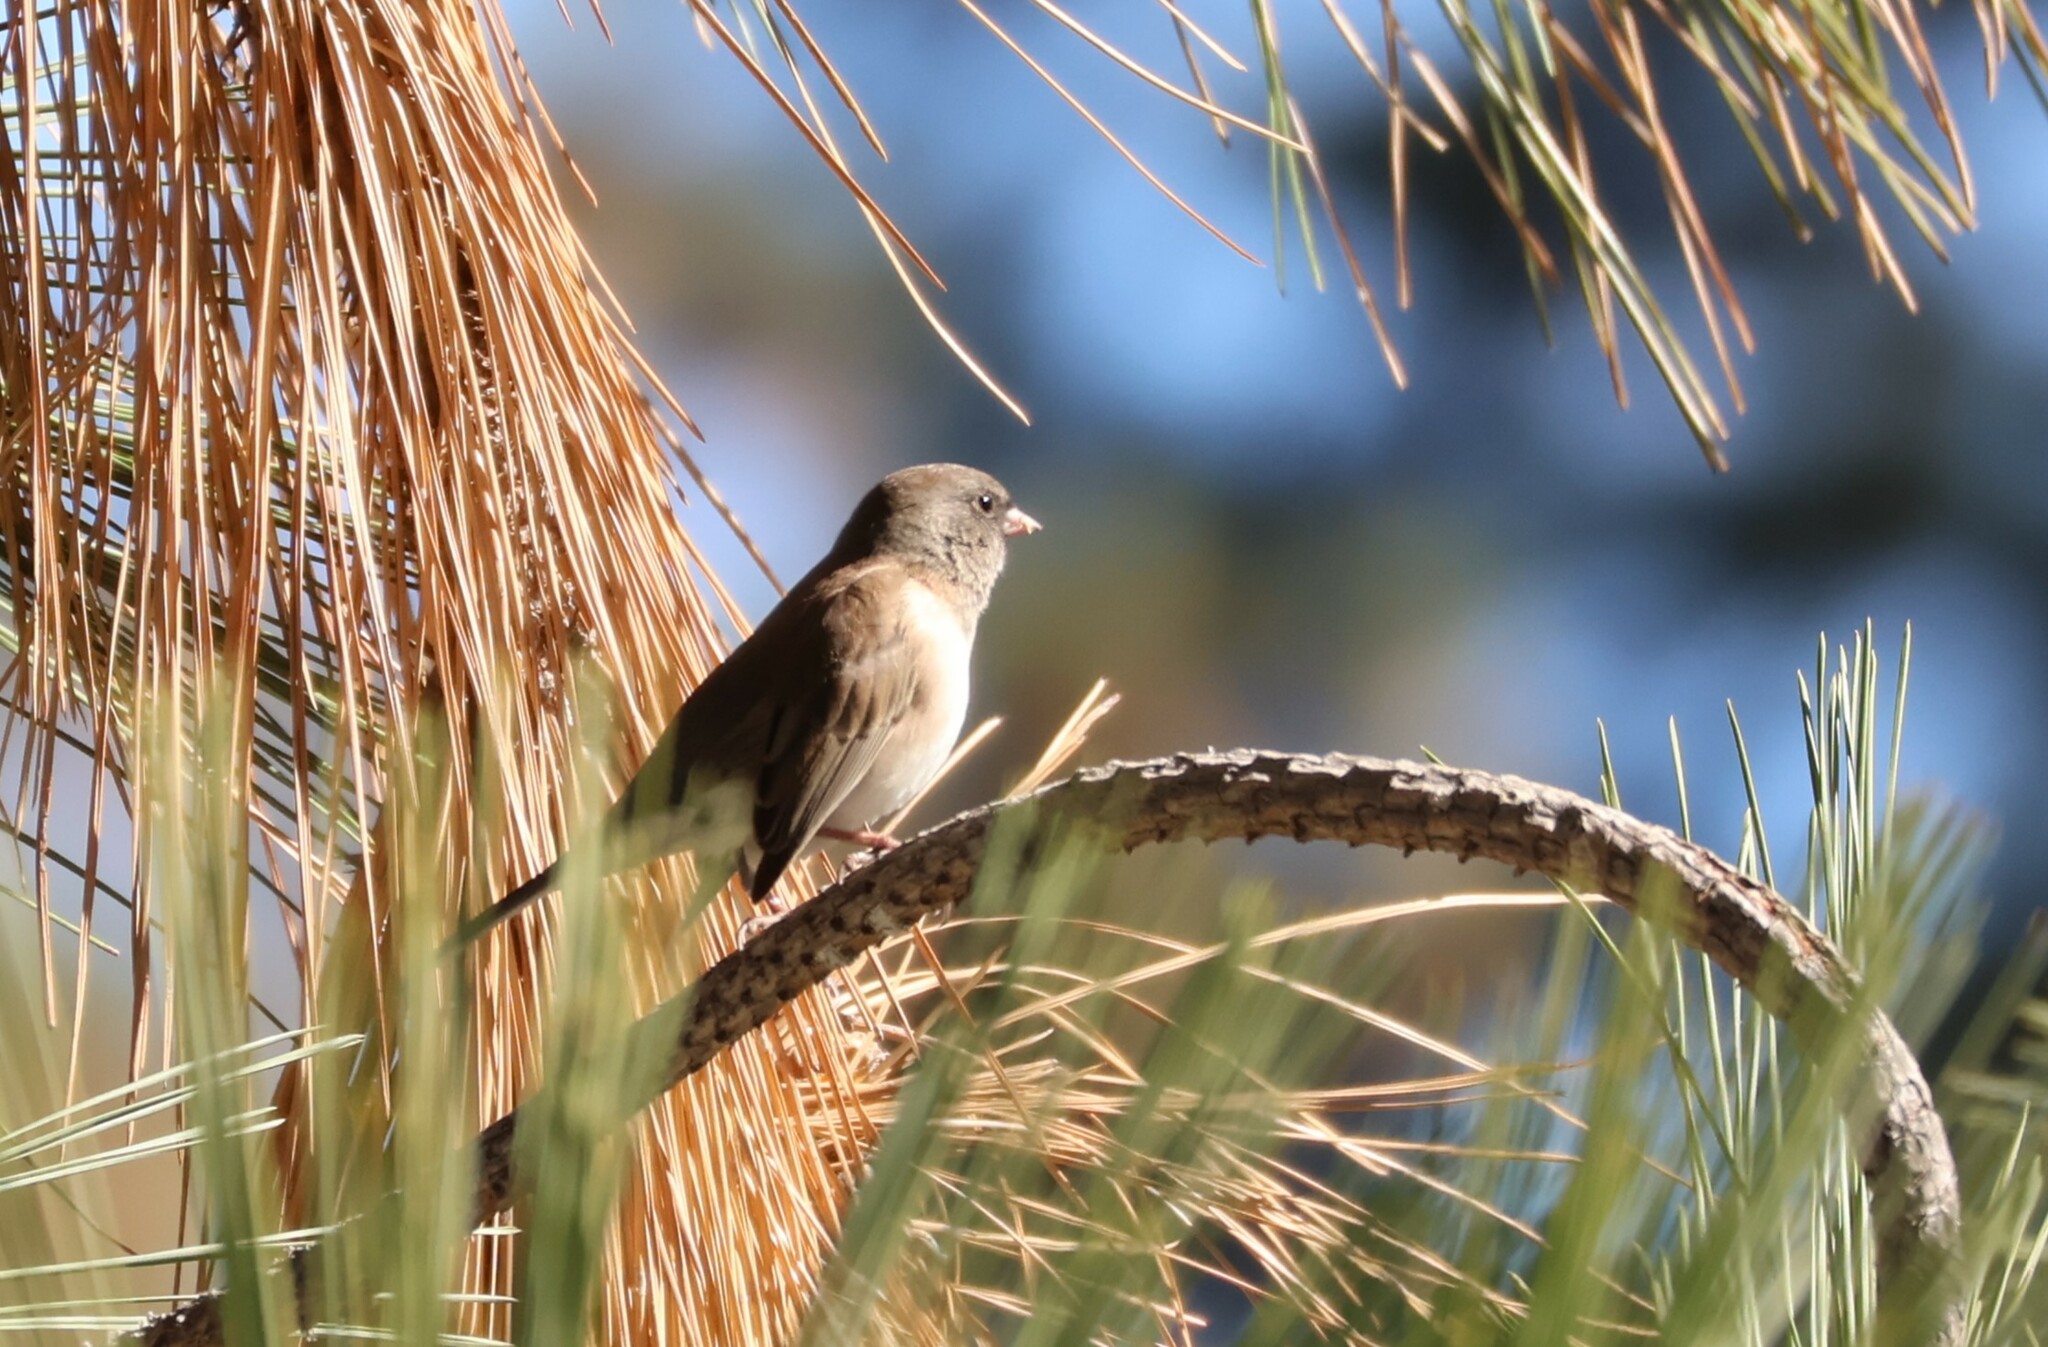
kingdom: Animalia
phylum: Chordata
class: Aves
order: Passeriformes
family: Passerellidae
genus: Junco
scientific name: Junco hyemalis
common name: Dark-eyed junco
